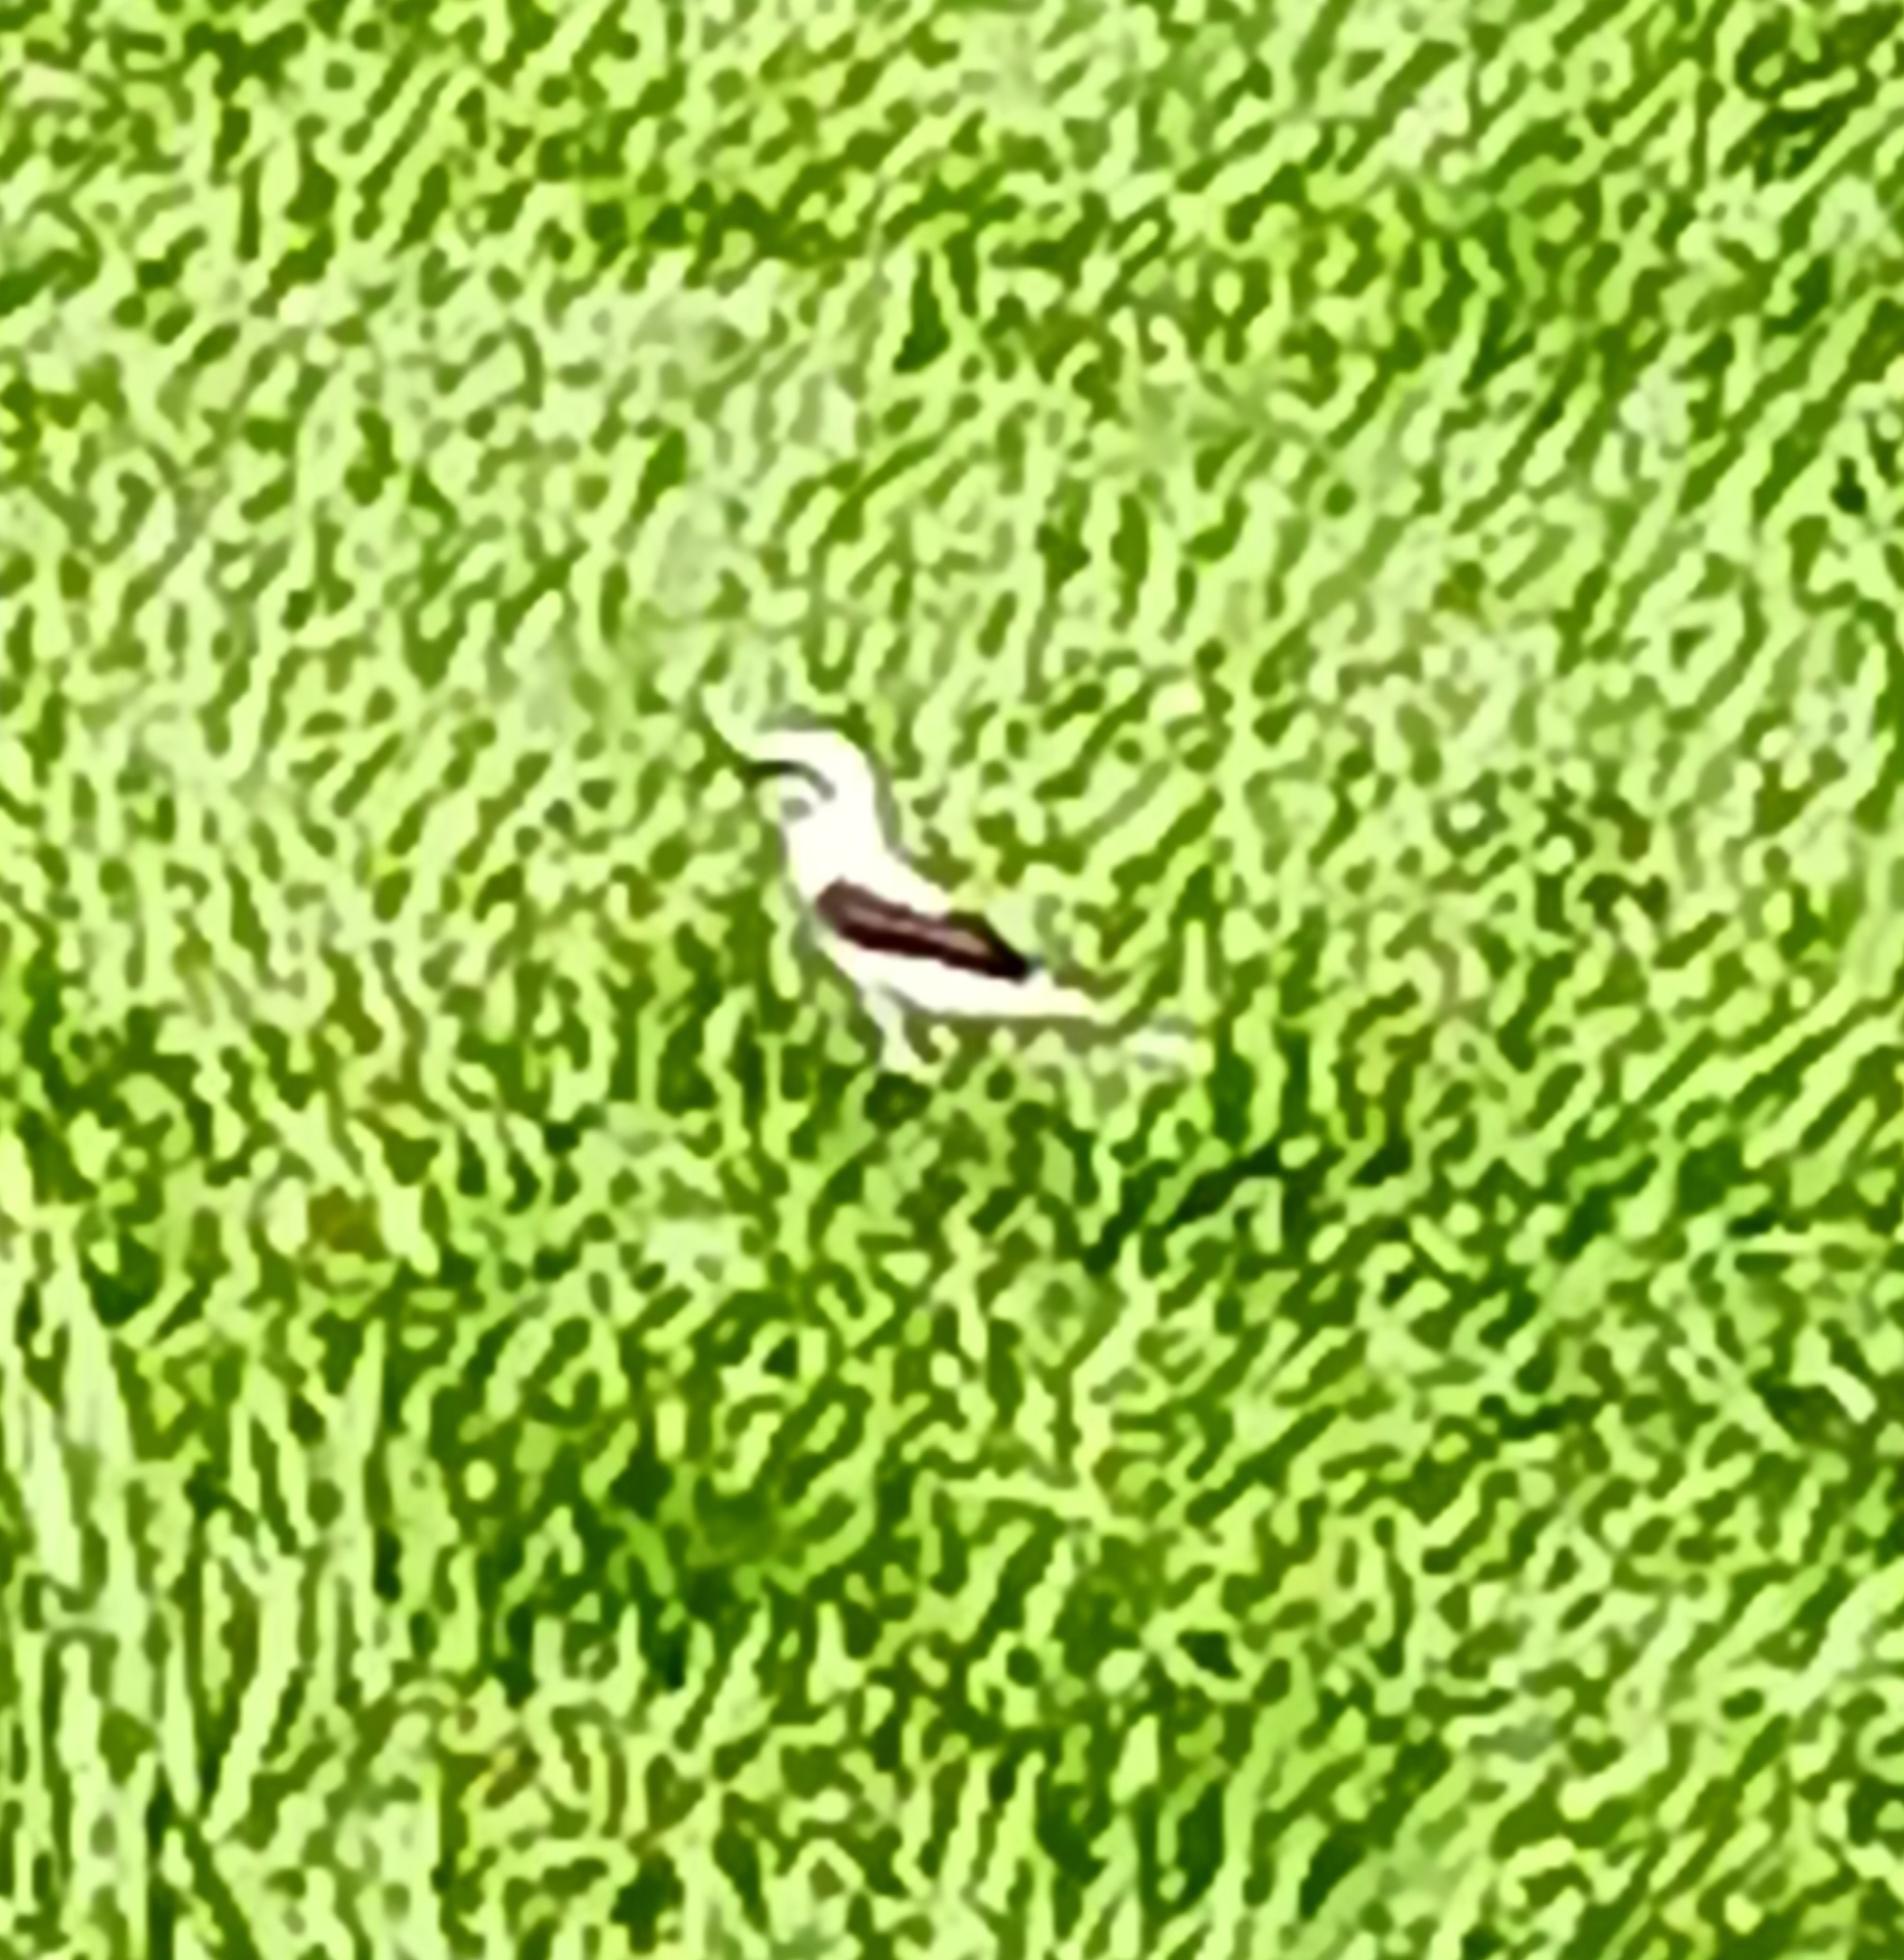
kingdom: Animalia
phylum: Chordata
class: Aves
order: Passeriformes
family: Tyrannidae
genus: Fluvicola
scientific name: Fluvicola nengeta
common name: Masked water tyrant
